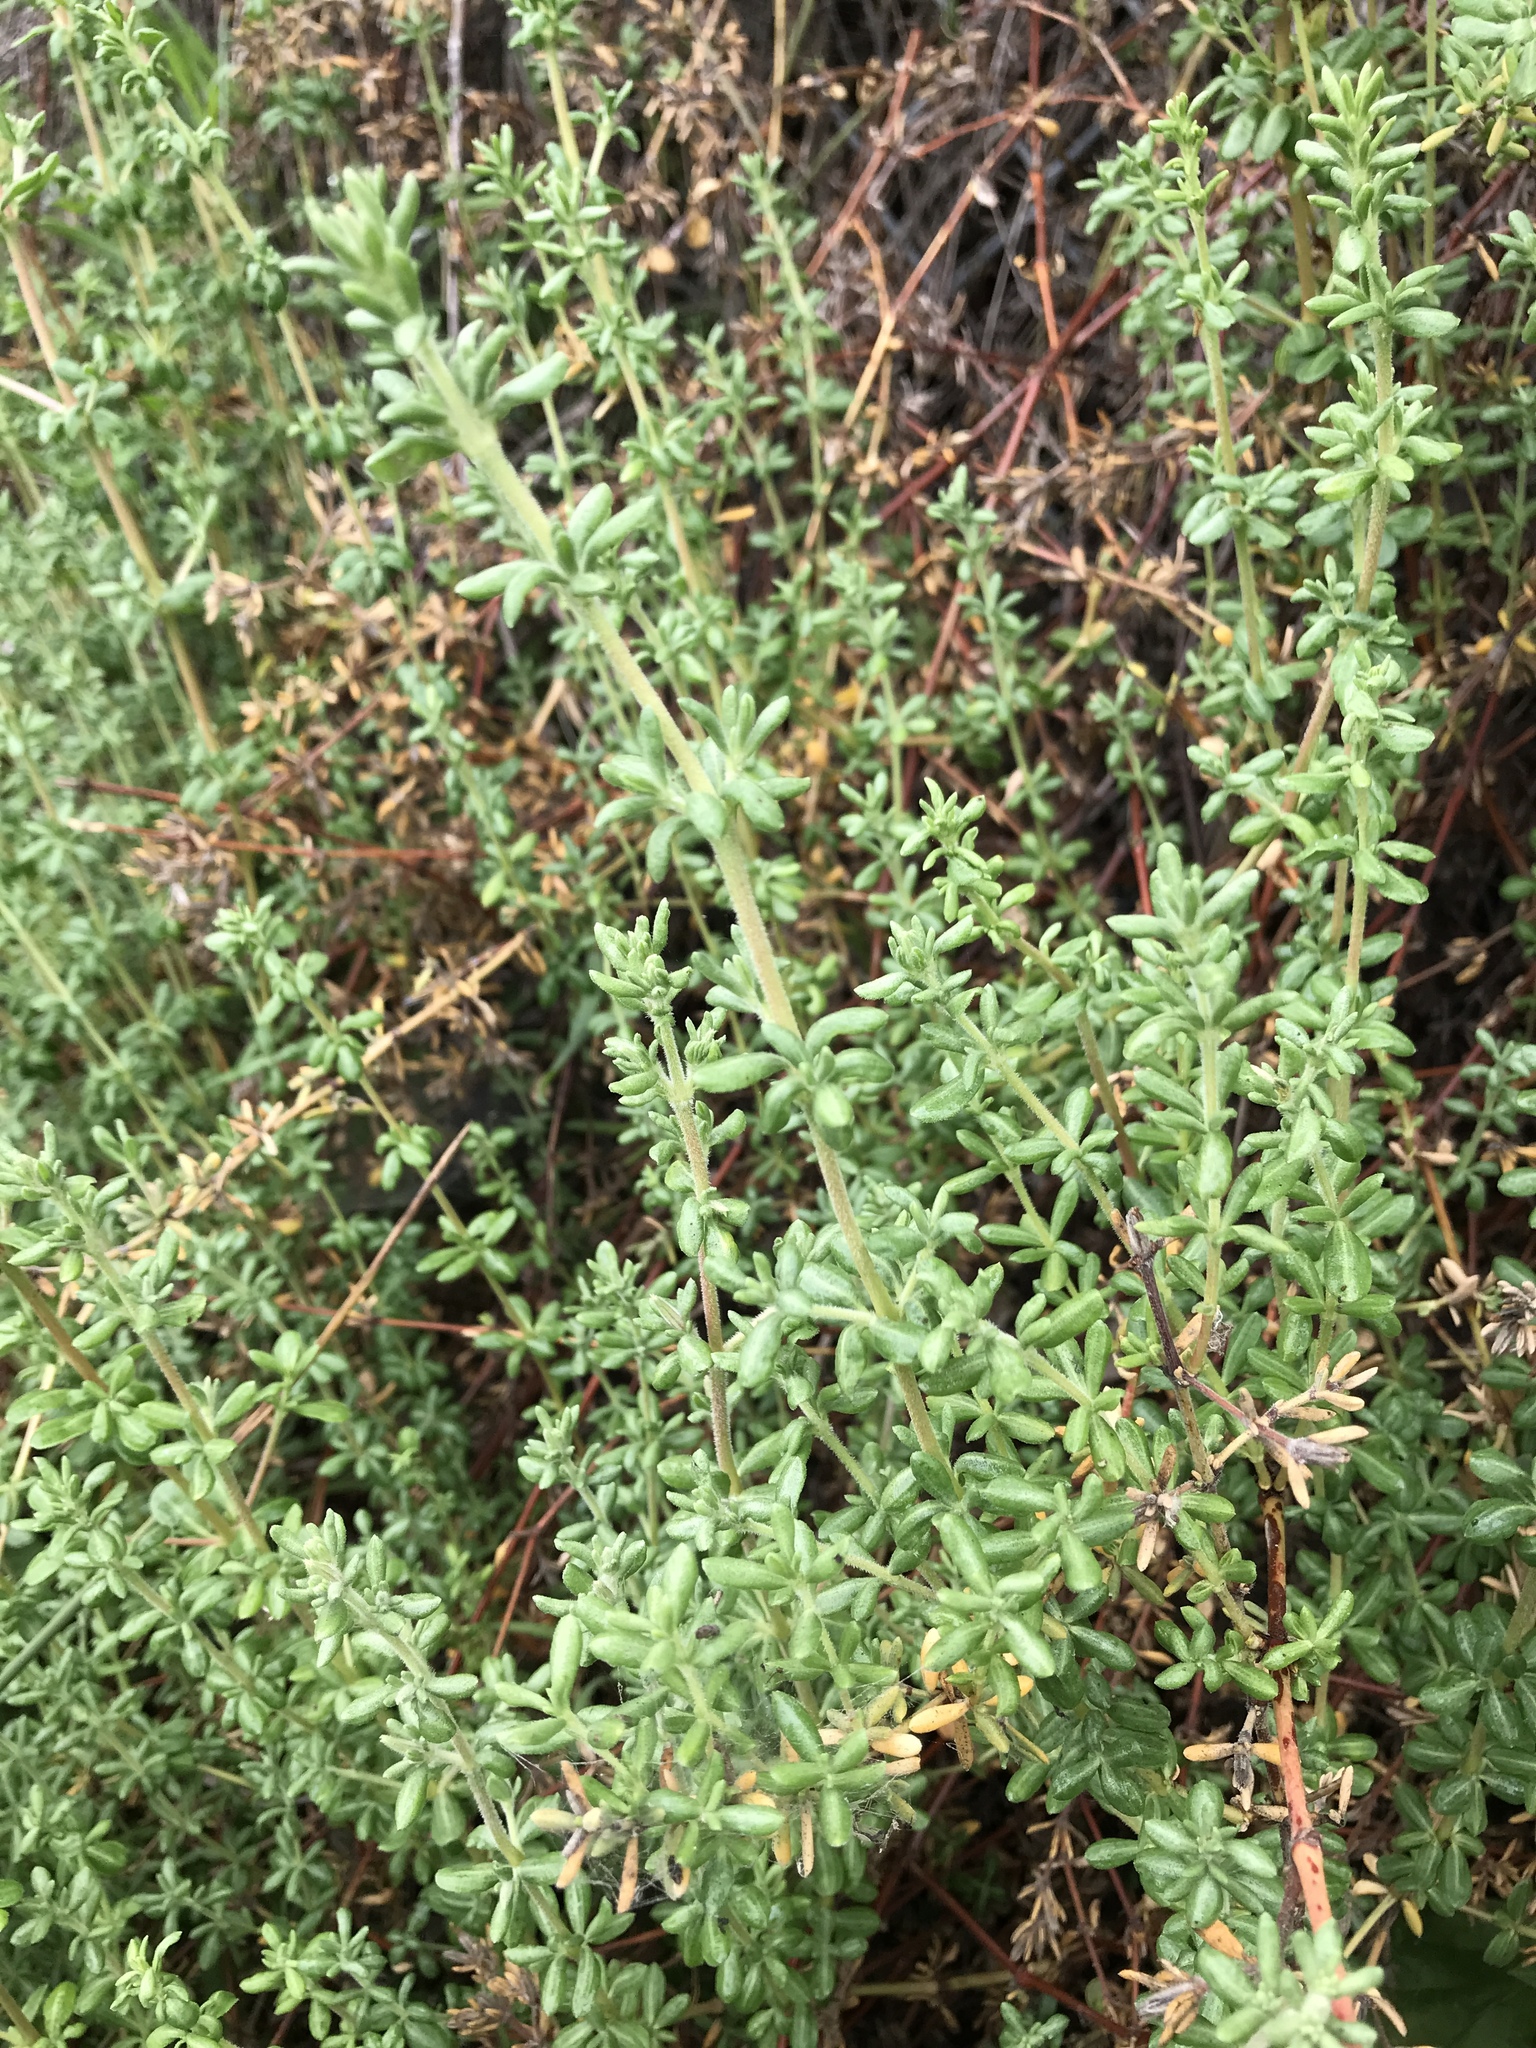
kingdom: Plantae
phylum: Tracheophyta
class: Magnoliopsida
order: Caryophyllales
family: Frankeniaceae
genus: Frankenia
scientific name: Frankenia salina
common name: Alkali seaheath
